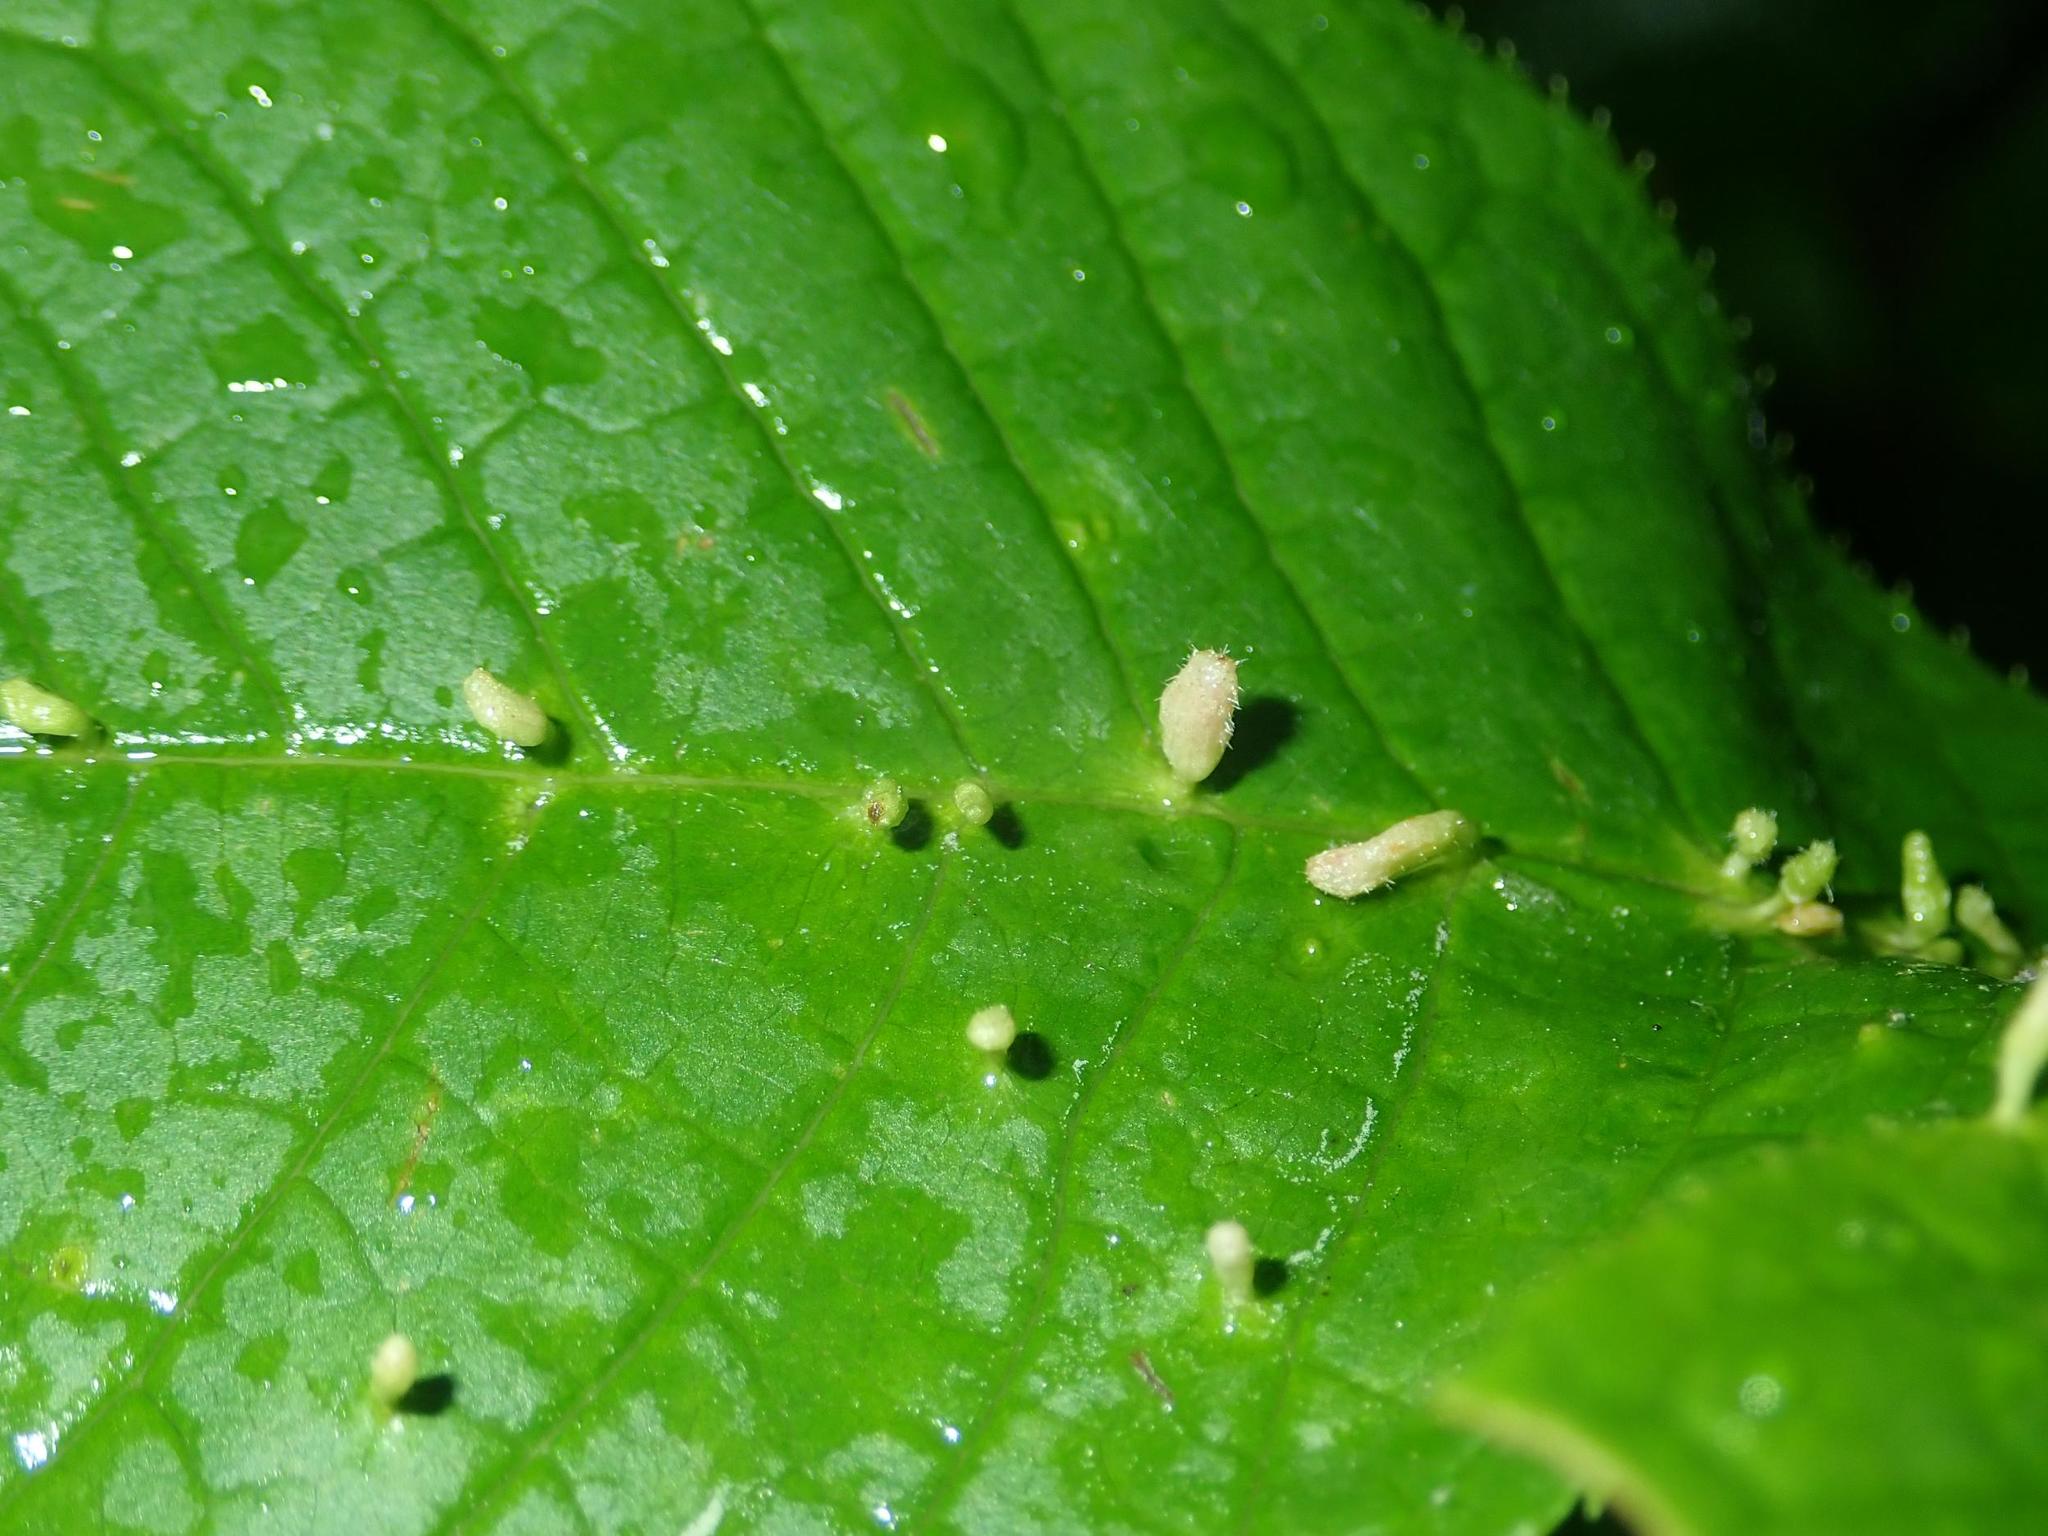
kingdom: Animalia
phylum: Arthropoda
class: Arachnida
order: Trombidiformes
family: Eriophyidae
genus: Phyllocoptes
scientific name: Phyllocoptes eupadi
